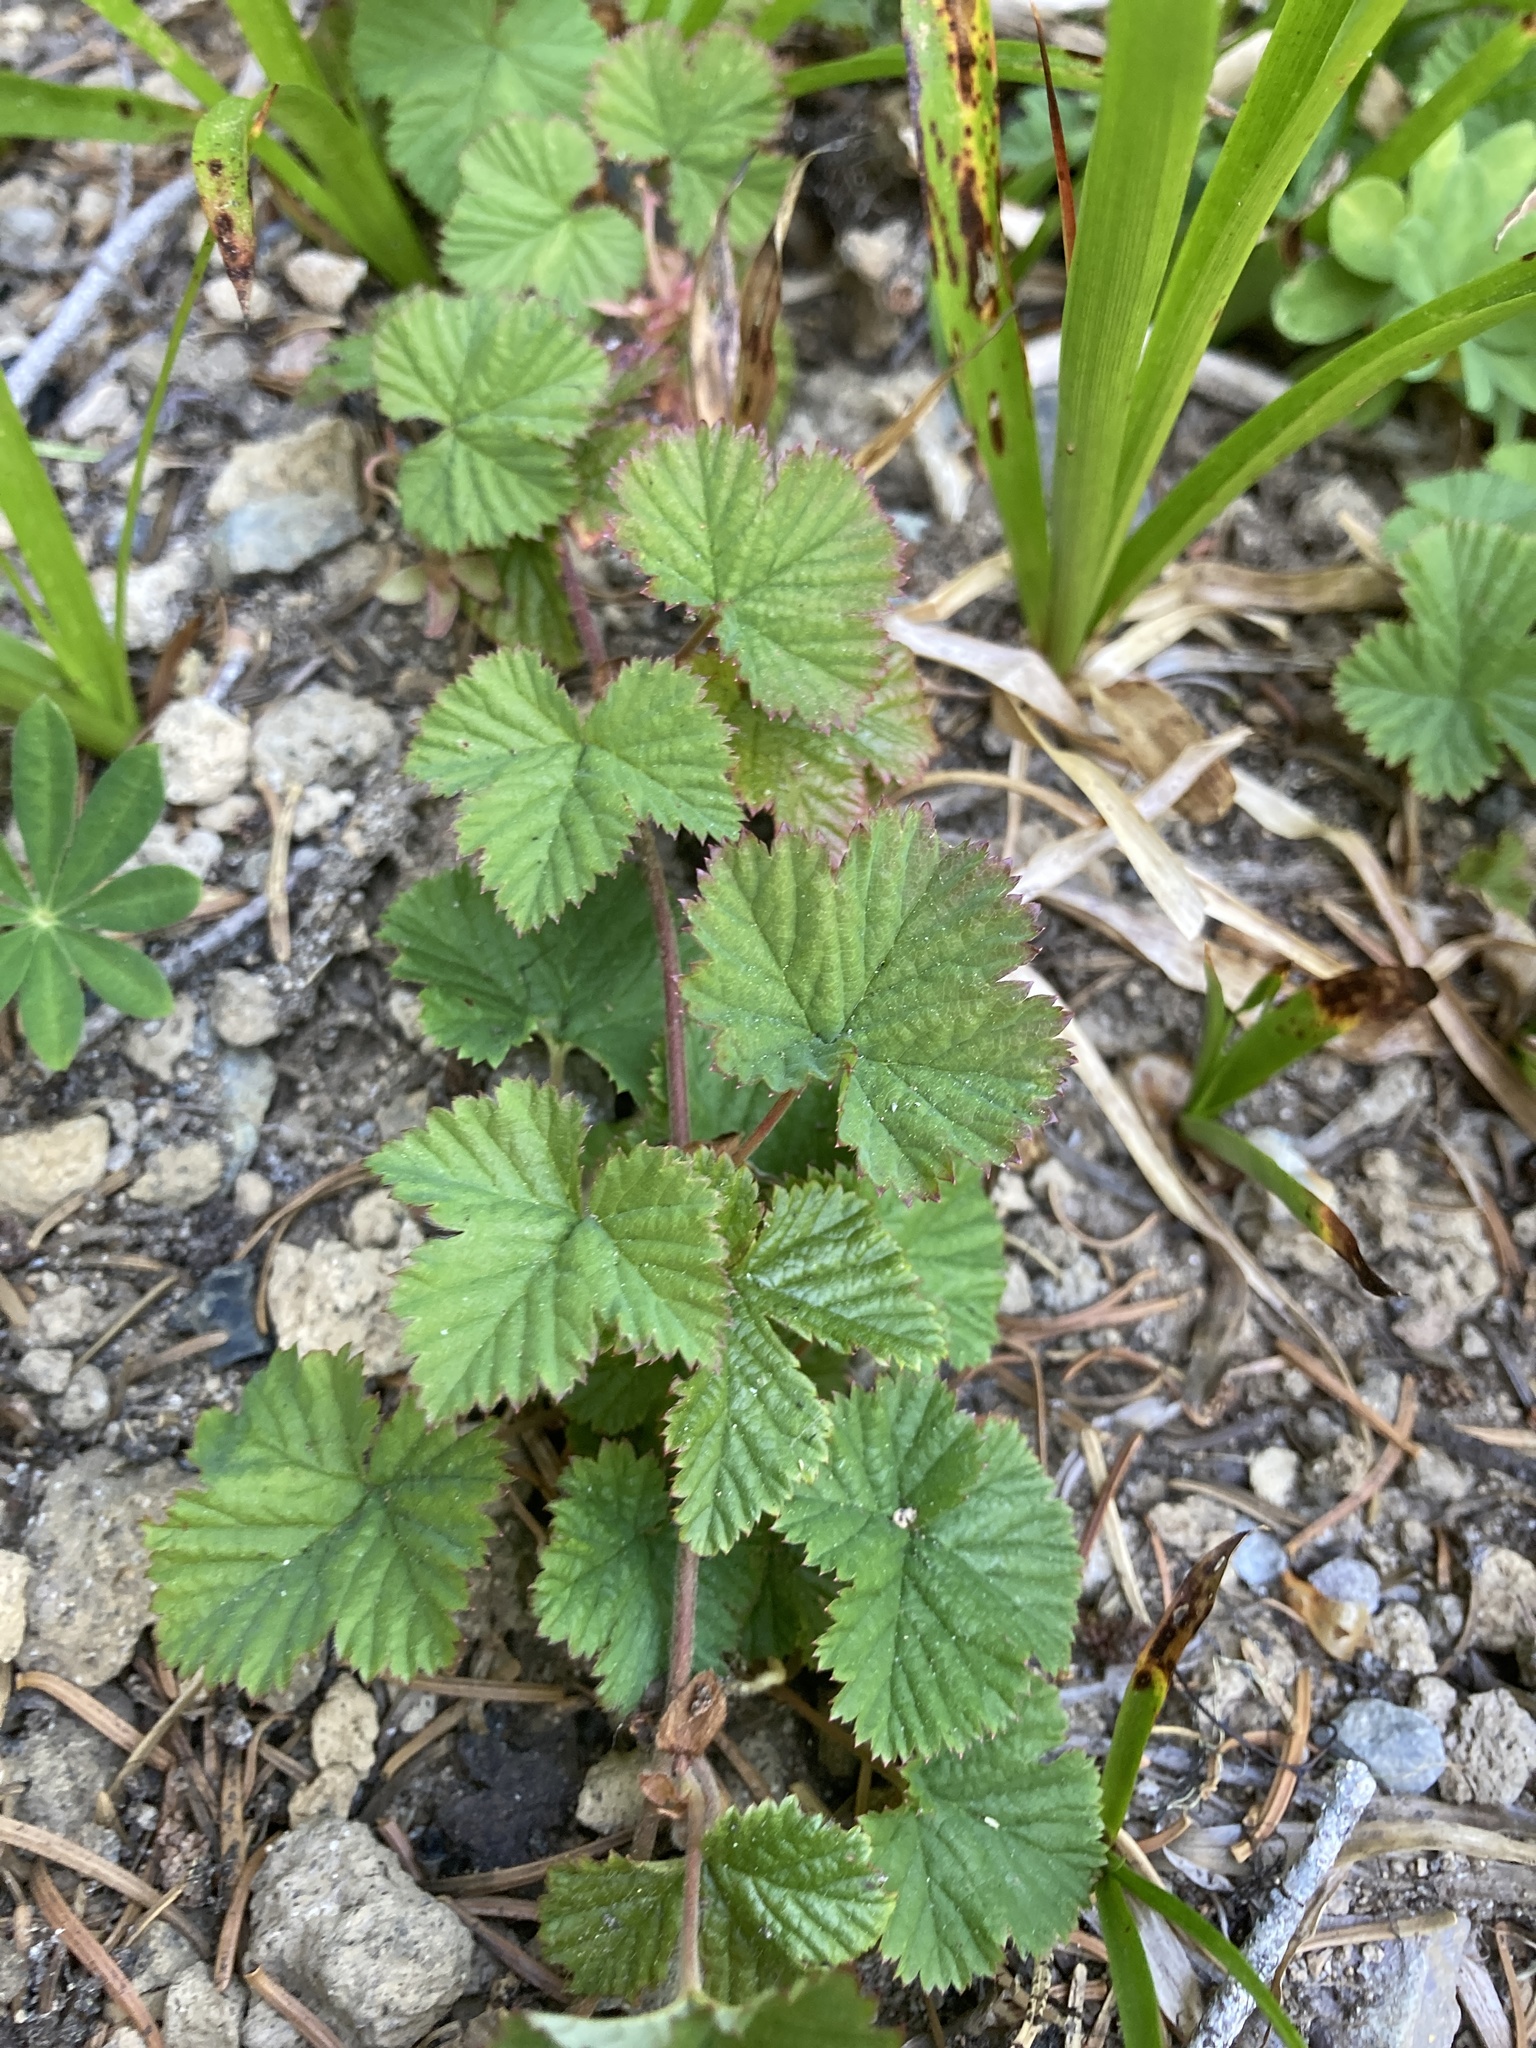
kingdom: Plantae
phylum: Tracheophyta
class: Magnoliopsida
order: Rosales
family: Rosaceae
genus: Rubus
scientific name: Rubus lasiococcus
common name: Dwarf bramble
